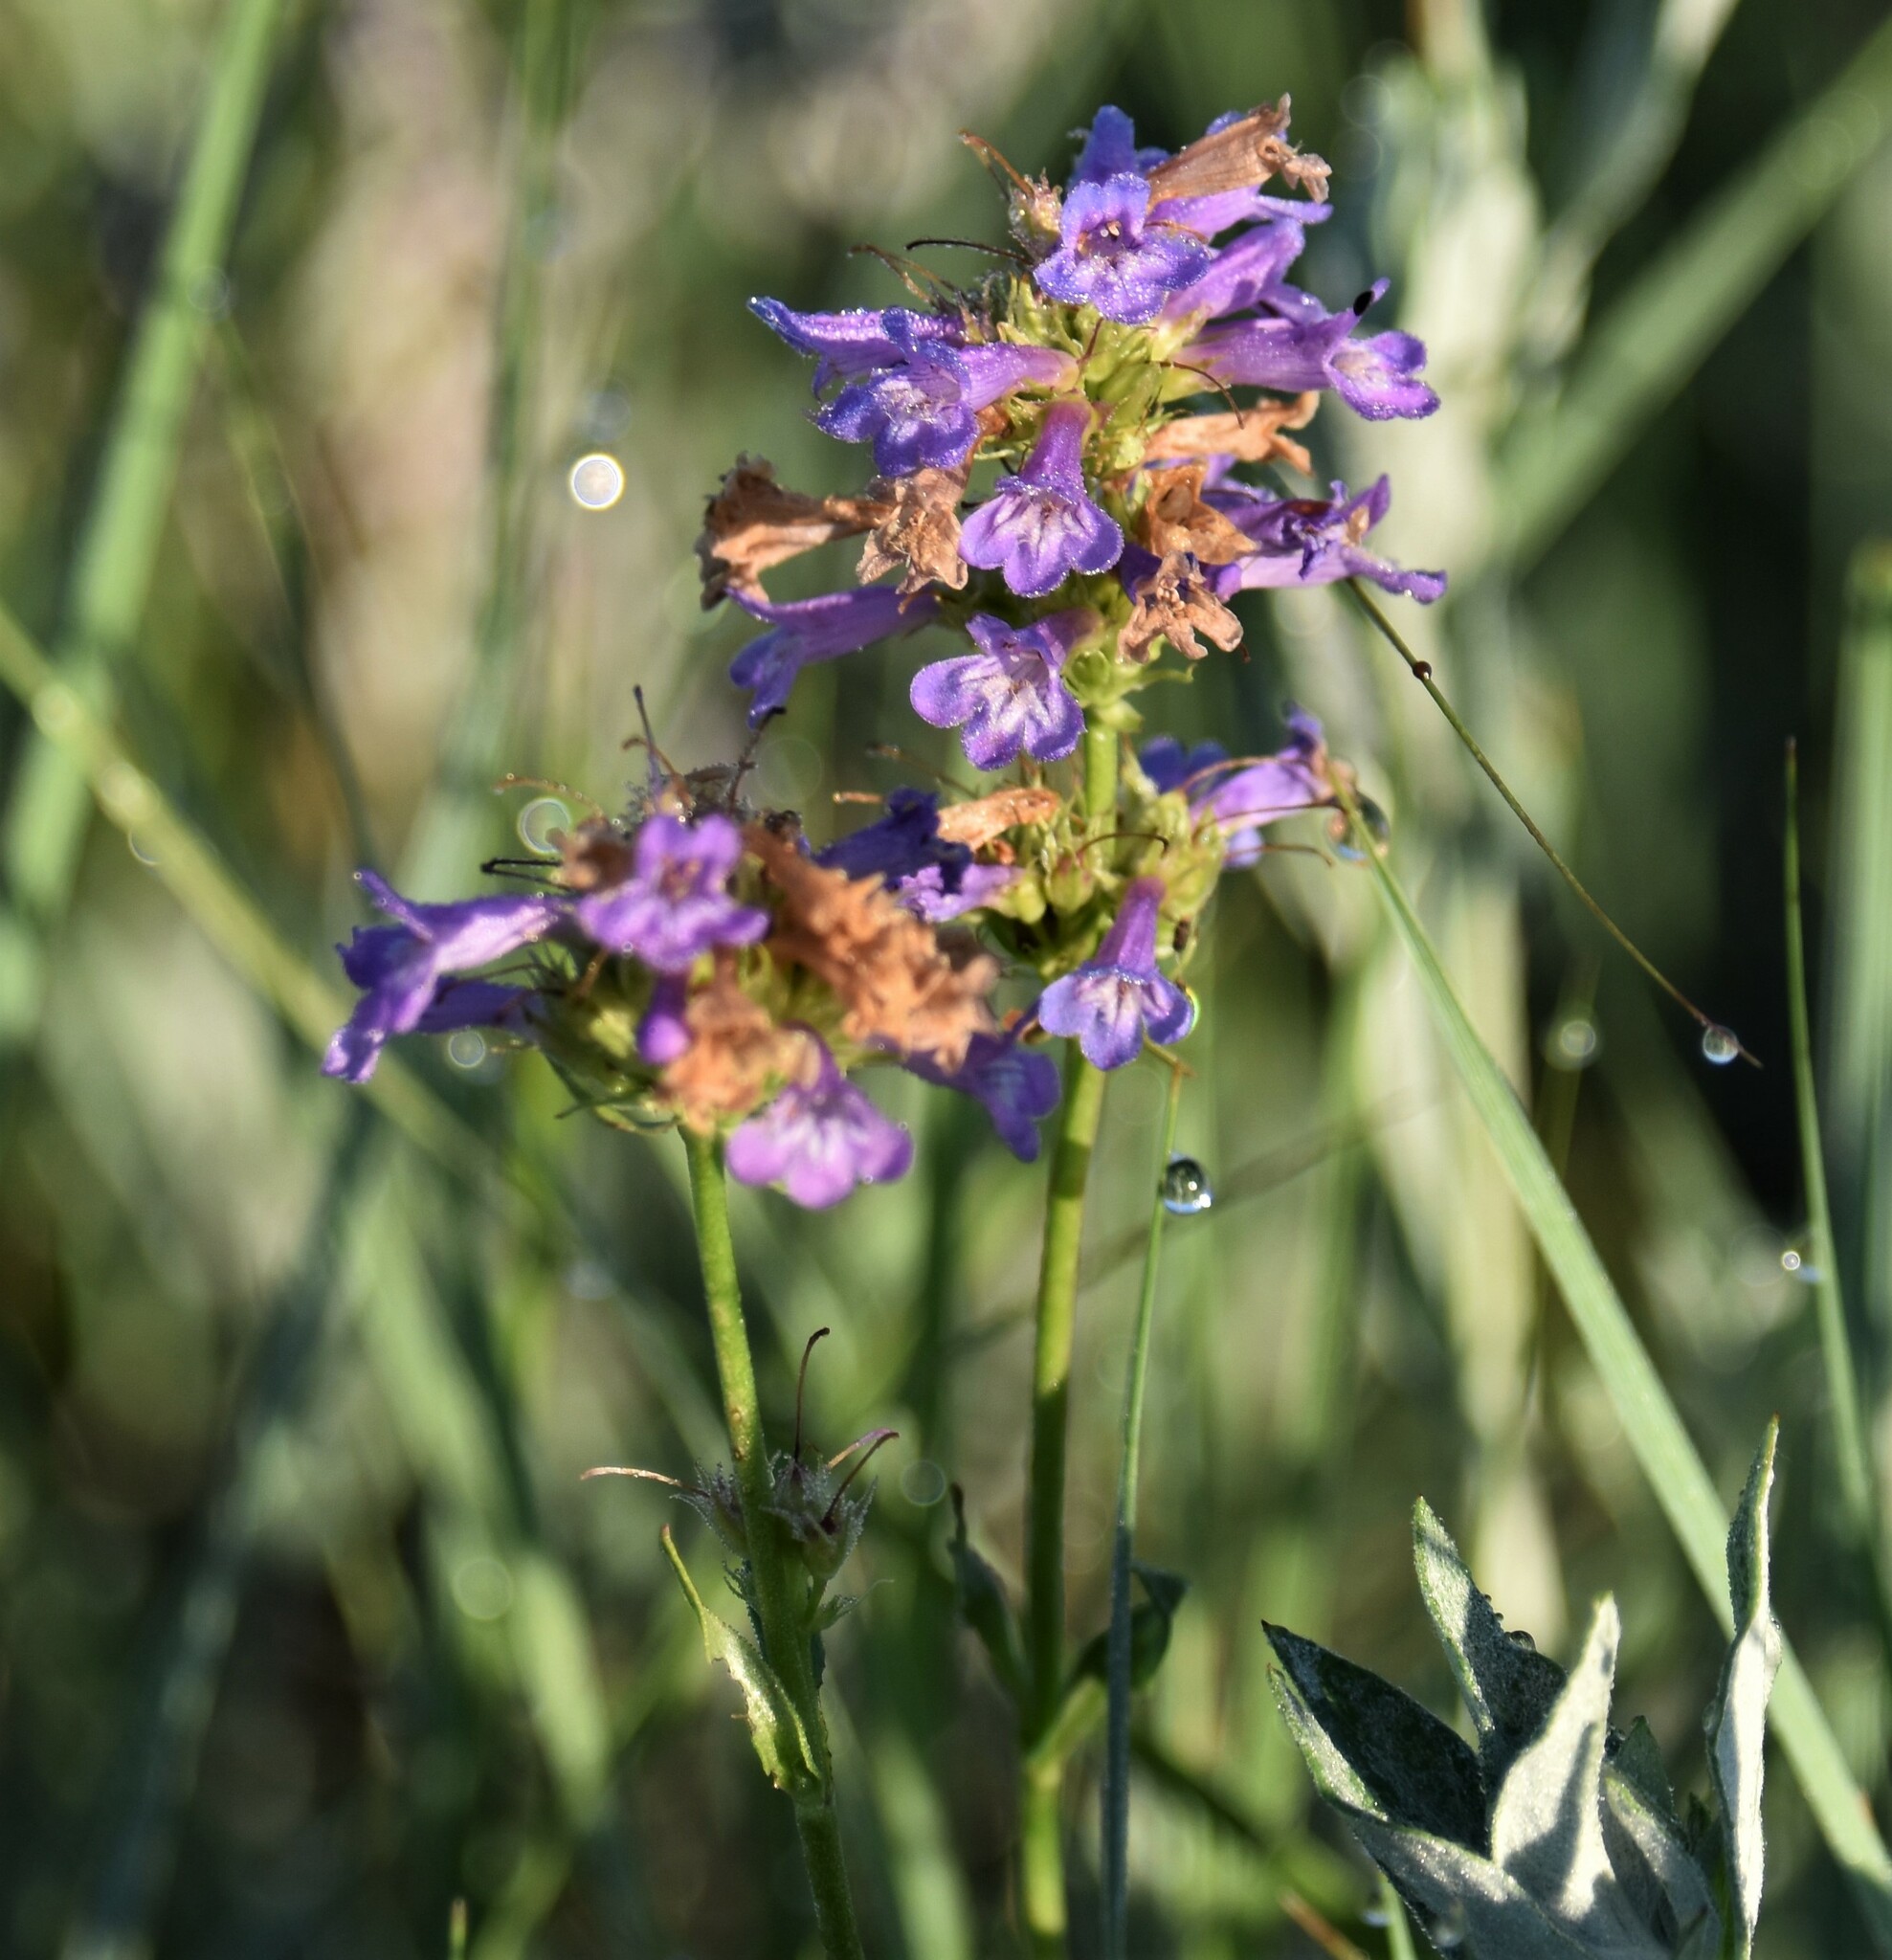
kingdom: Plantae
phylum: Tracheophyta
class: Magnoliopsida
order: Lamiales
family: Plantaginaceae
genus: Penstemon
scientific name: Penstemon procerus
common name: Small-flower penstemon
